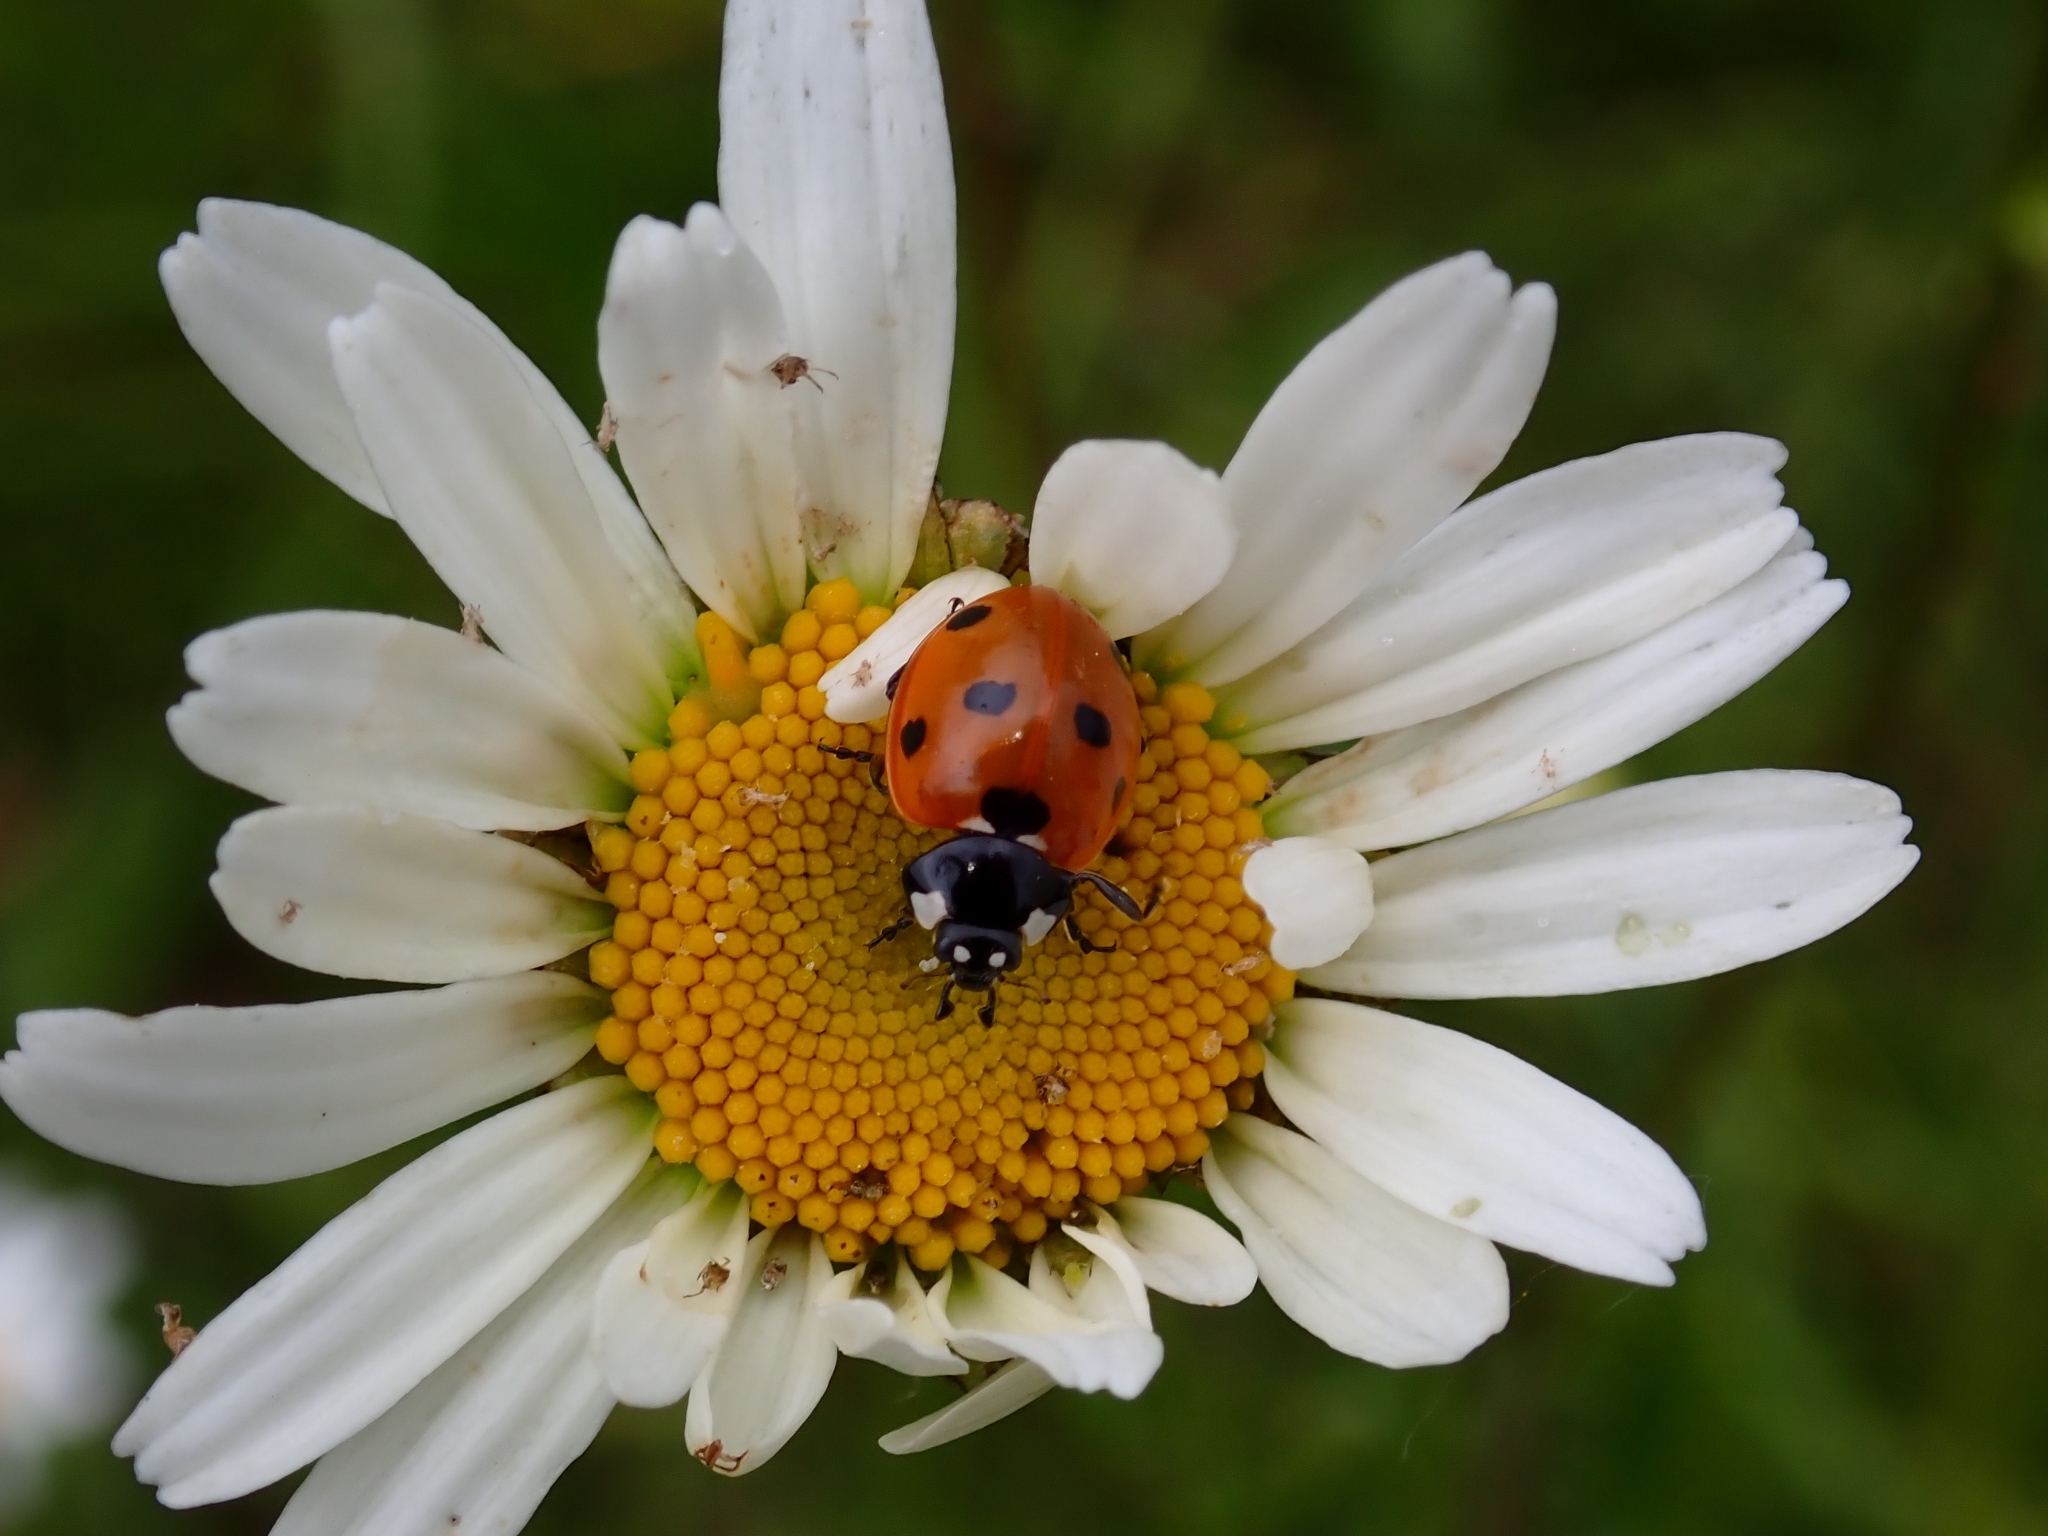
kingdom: Animalia
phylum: Arthropoda
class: Insecta
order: Coleoptera
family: Coccinellidae
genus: Coccinella
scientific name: Coccinella septempunctata
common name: Sevenspotted lady beetle
